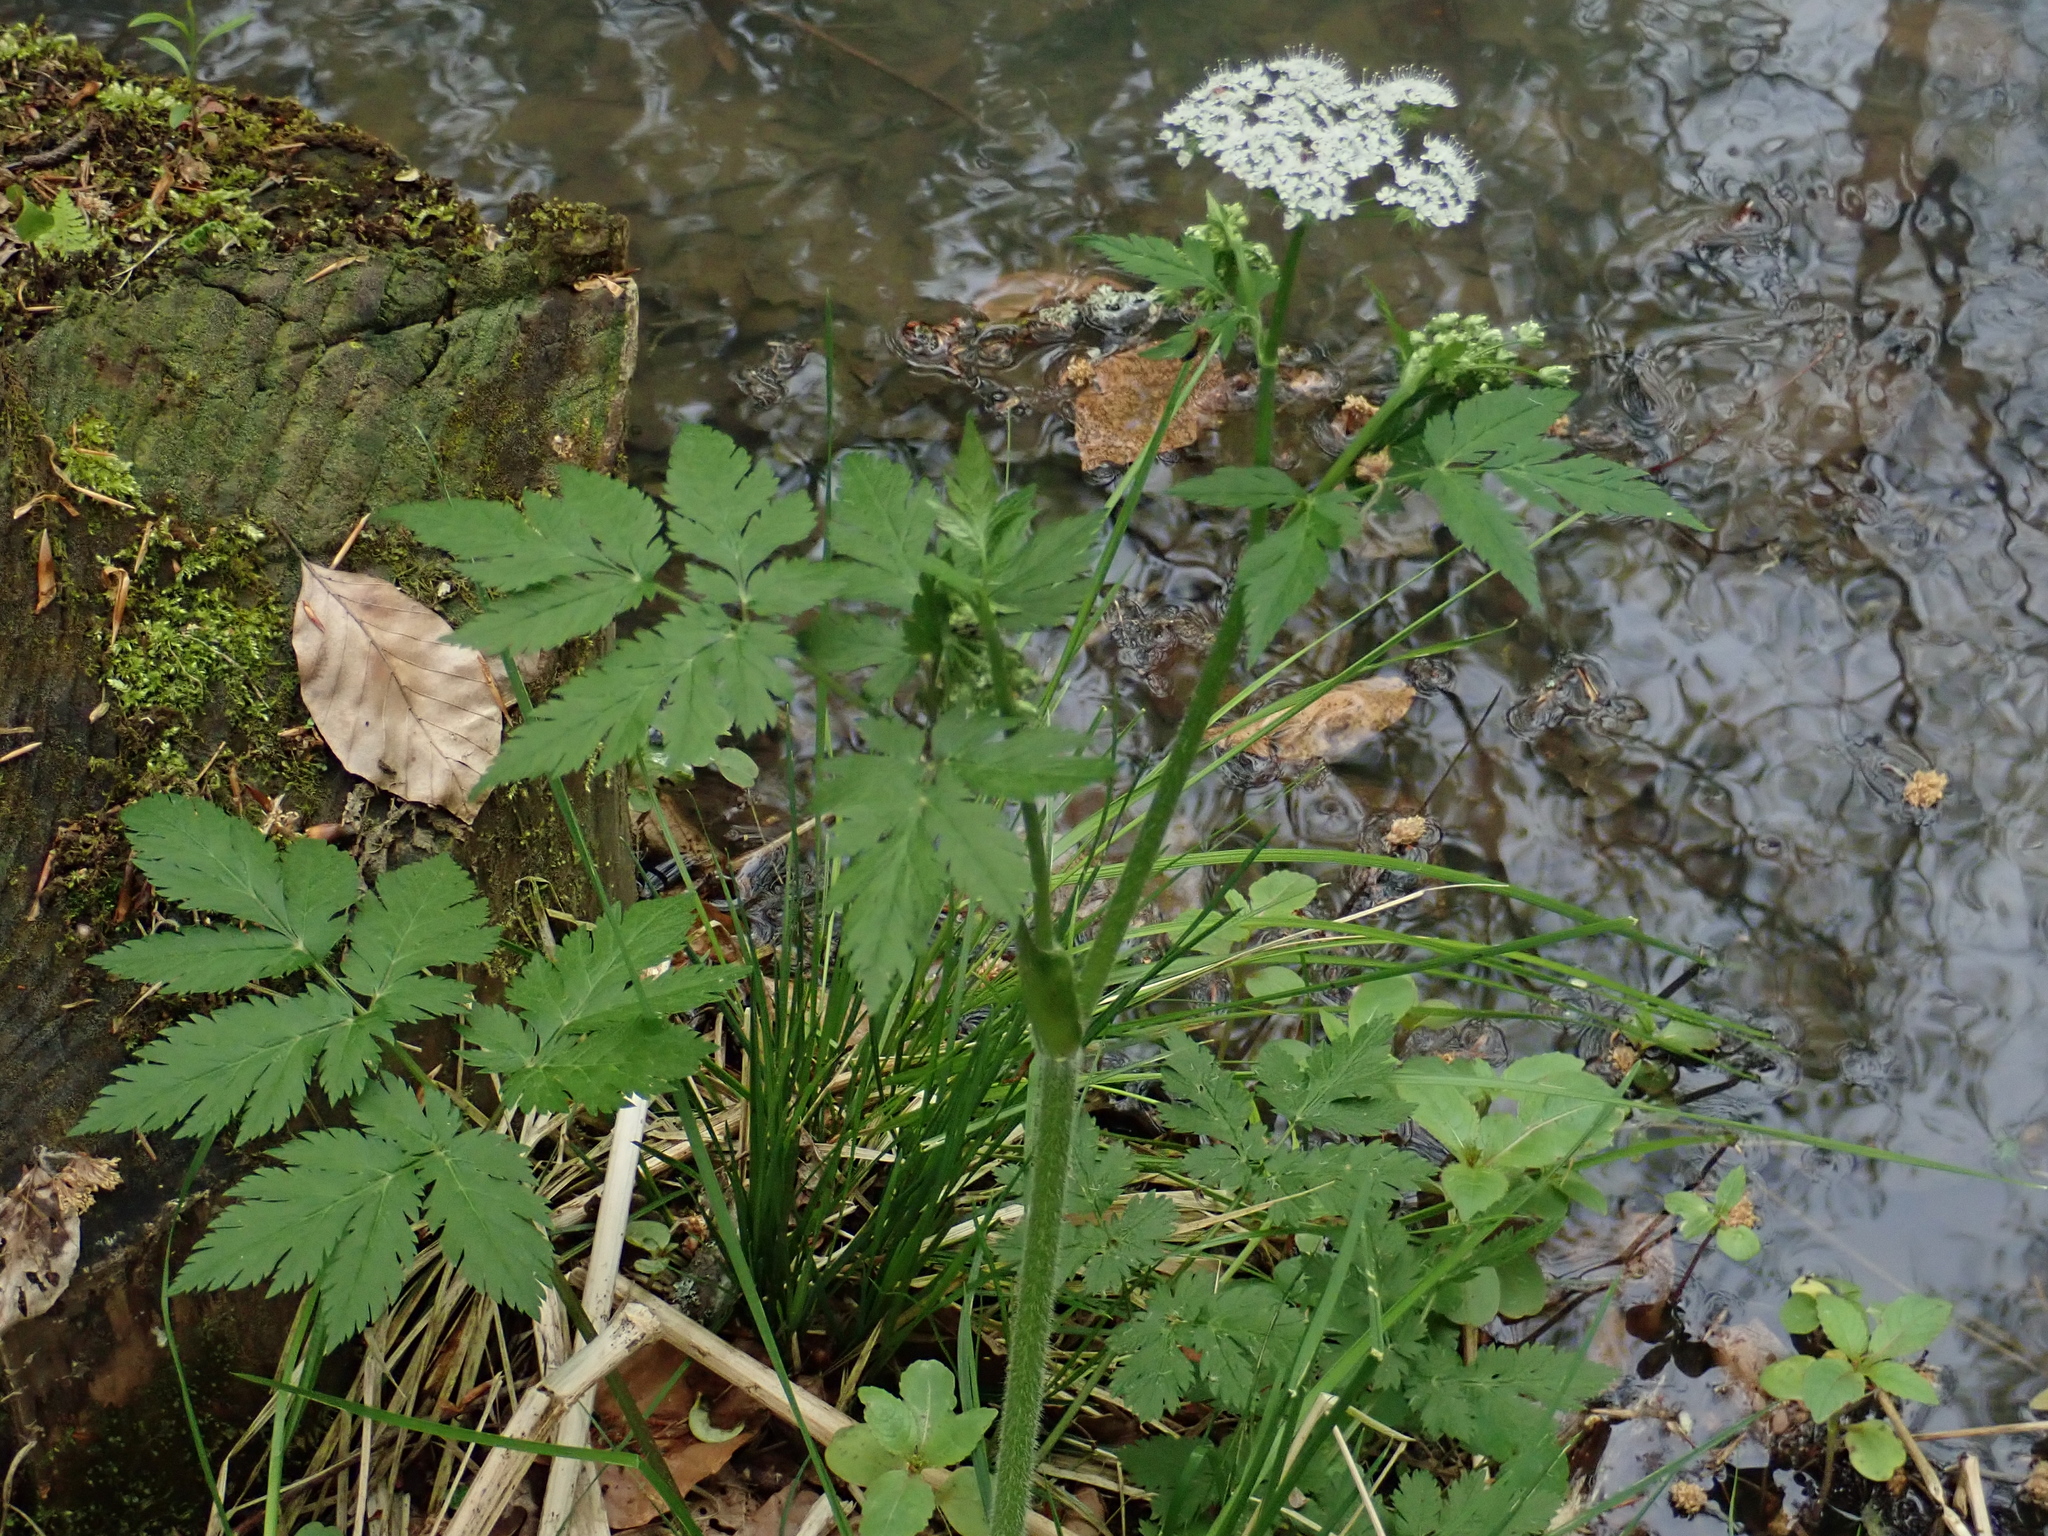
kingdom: Plantae
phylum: Tracheophyta
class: Magnoliopsida
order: Apiales
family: Apiaceae
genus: Chaerophyllum
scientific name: Chaerophyllum hirsutum
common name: Hairy chervil
